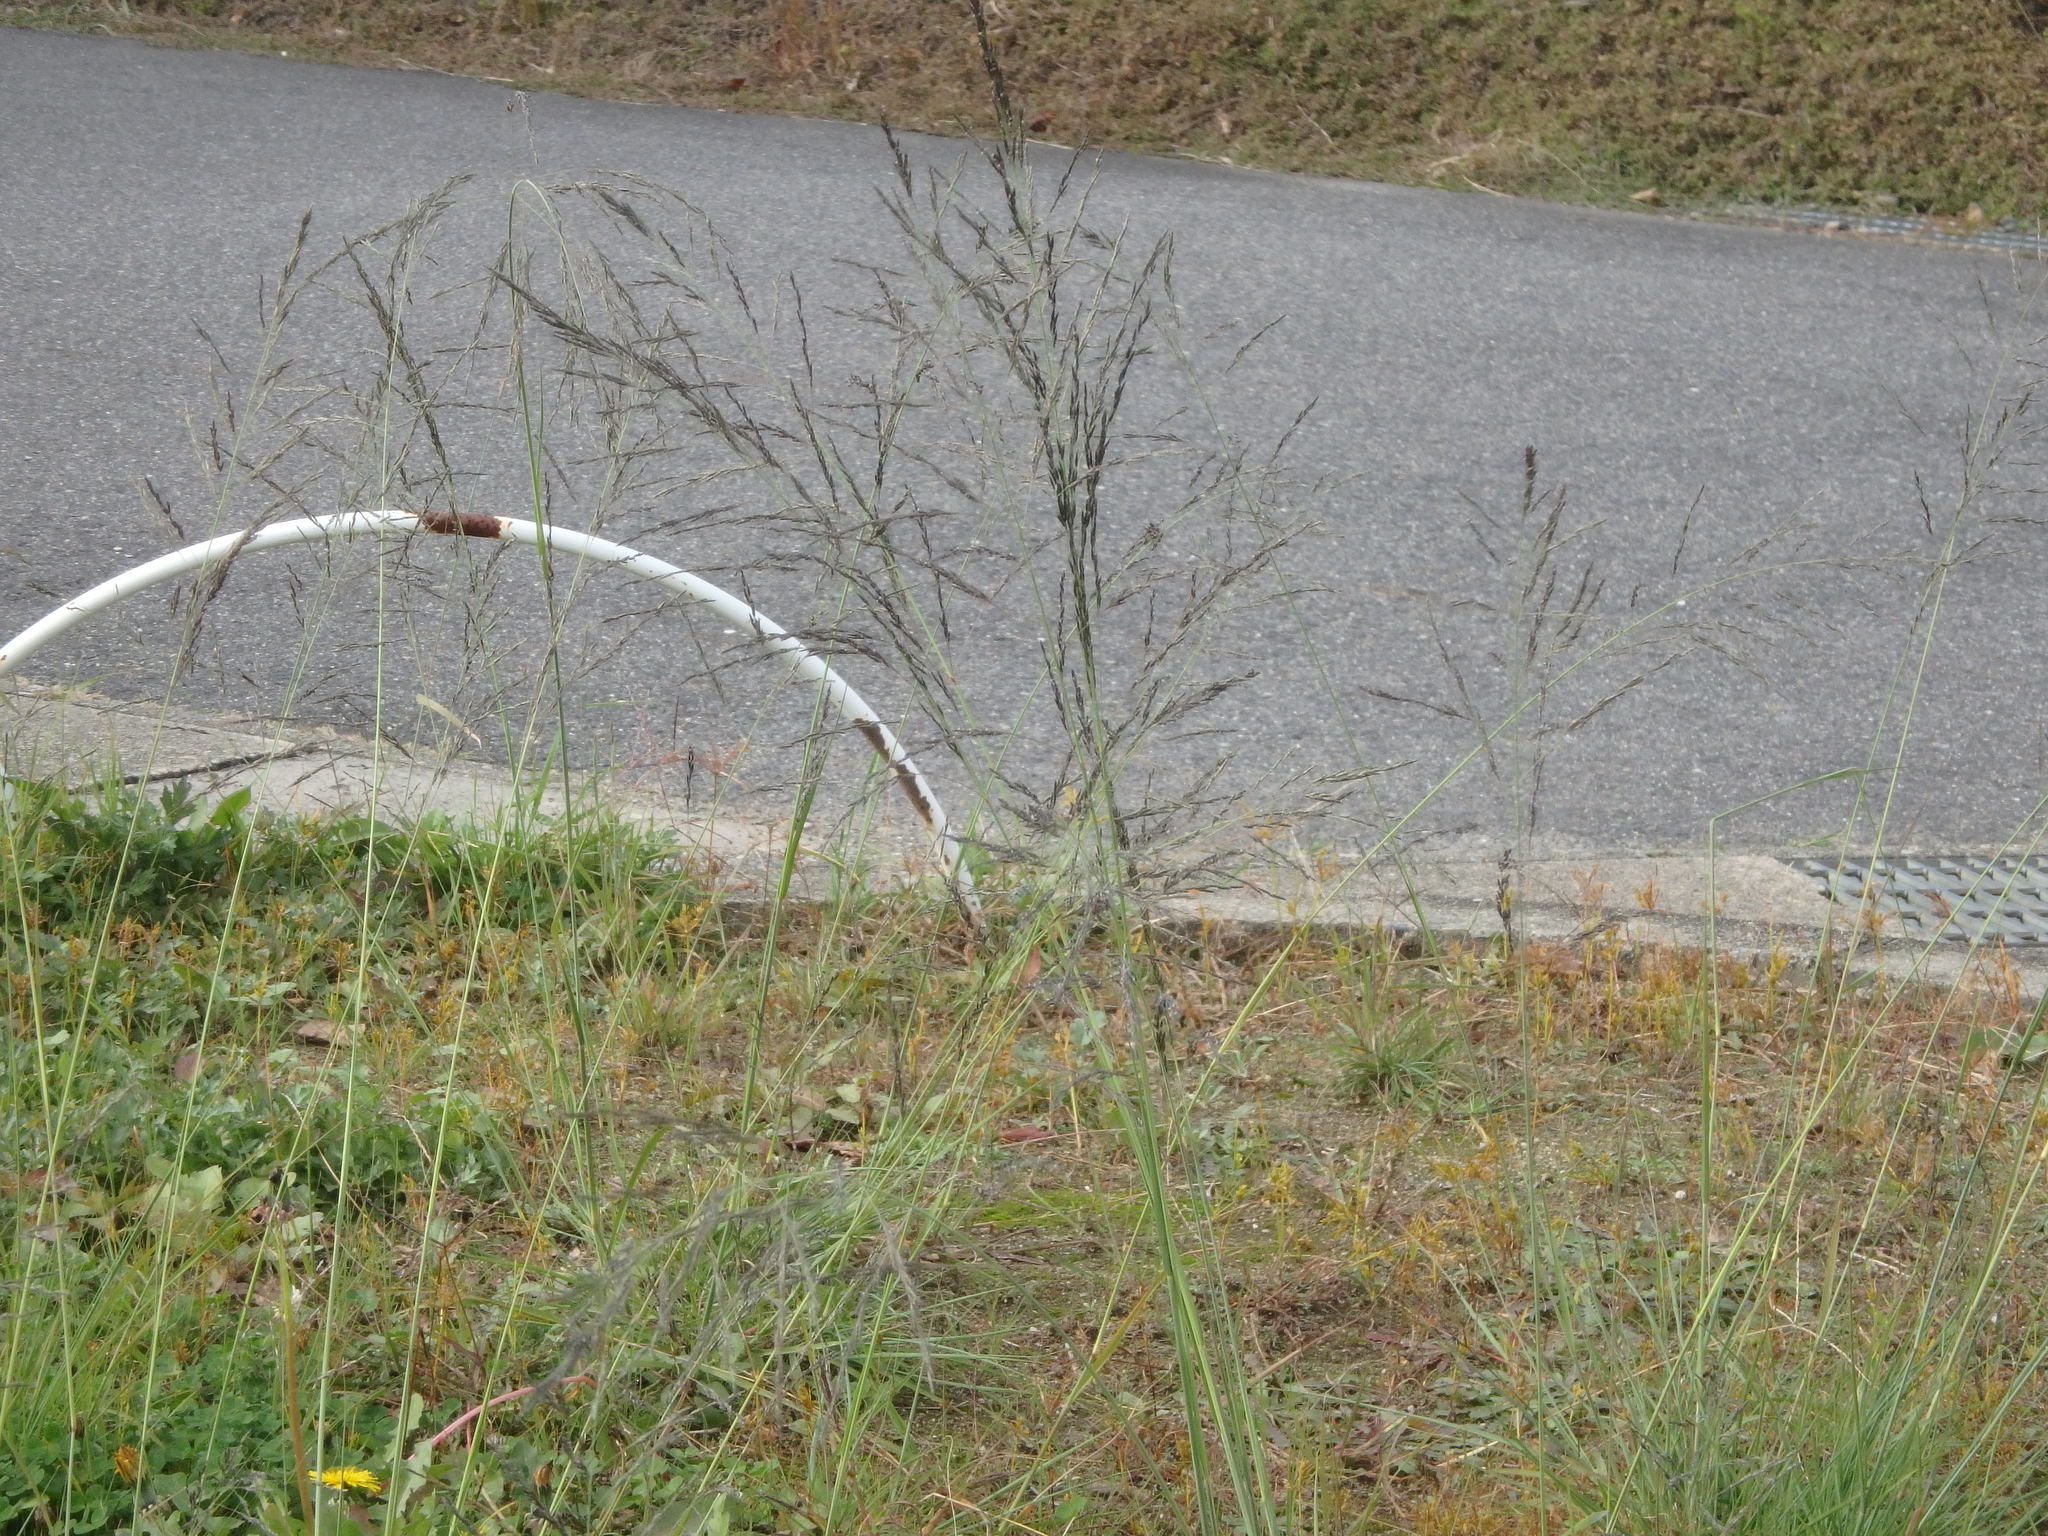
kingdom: Plantae
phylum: Tracheophyta
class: Liliopsida
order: Poales
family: Poaceae
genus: Eragrostis
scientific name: Eragrostis curvula
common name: African love-grass
